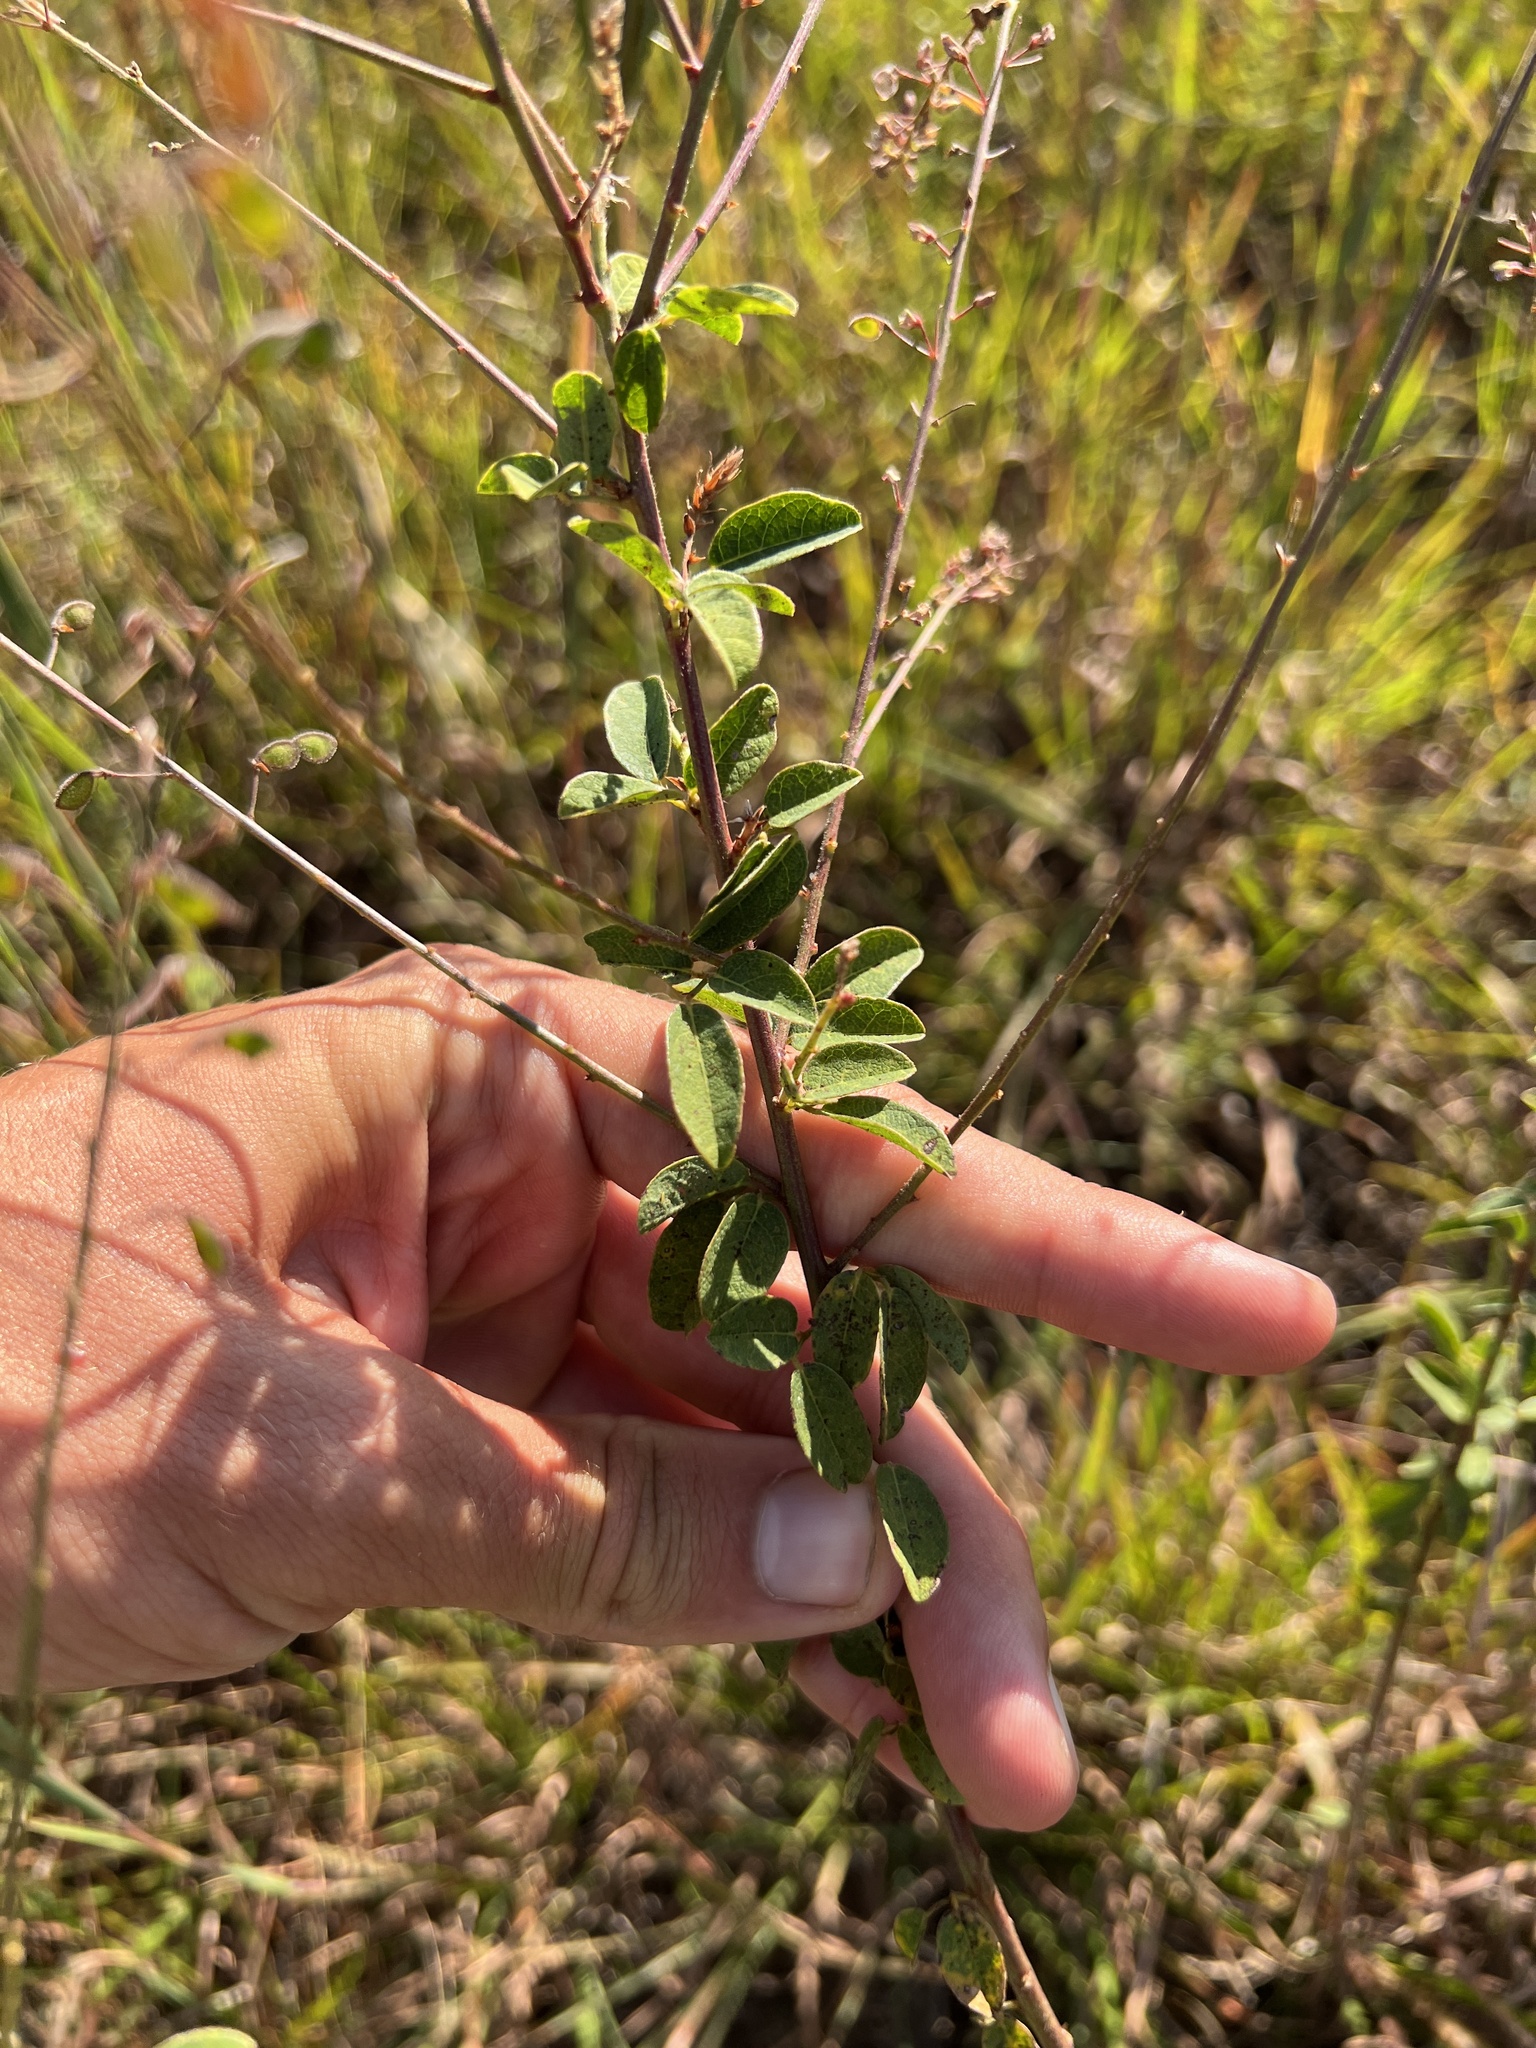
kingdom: Plantae
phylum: Tracheophyta
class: Magnoliopsida
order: Fabales
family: Fabaceae
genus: Desmodium
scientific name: Desmodium ciliare
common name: Hairy small-leaf ticktrefoil
